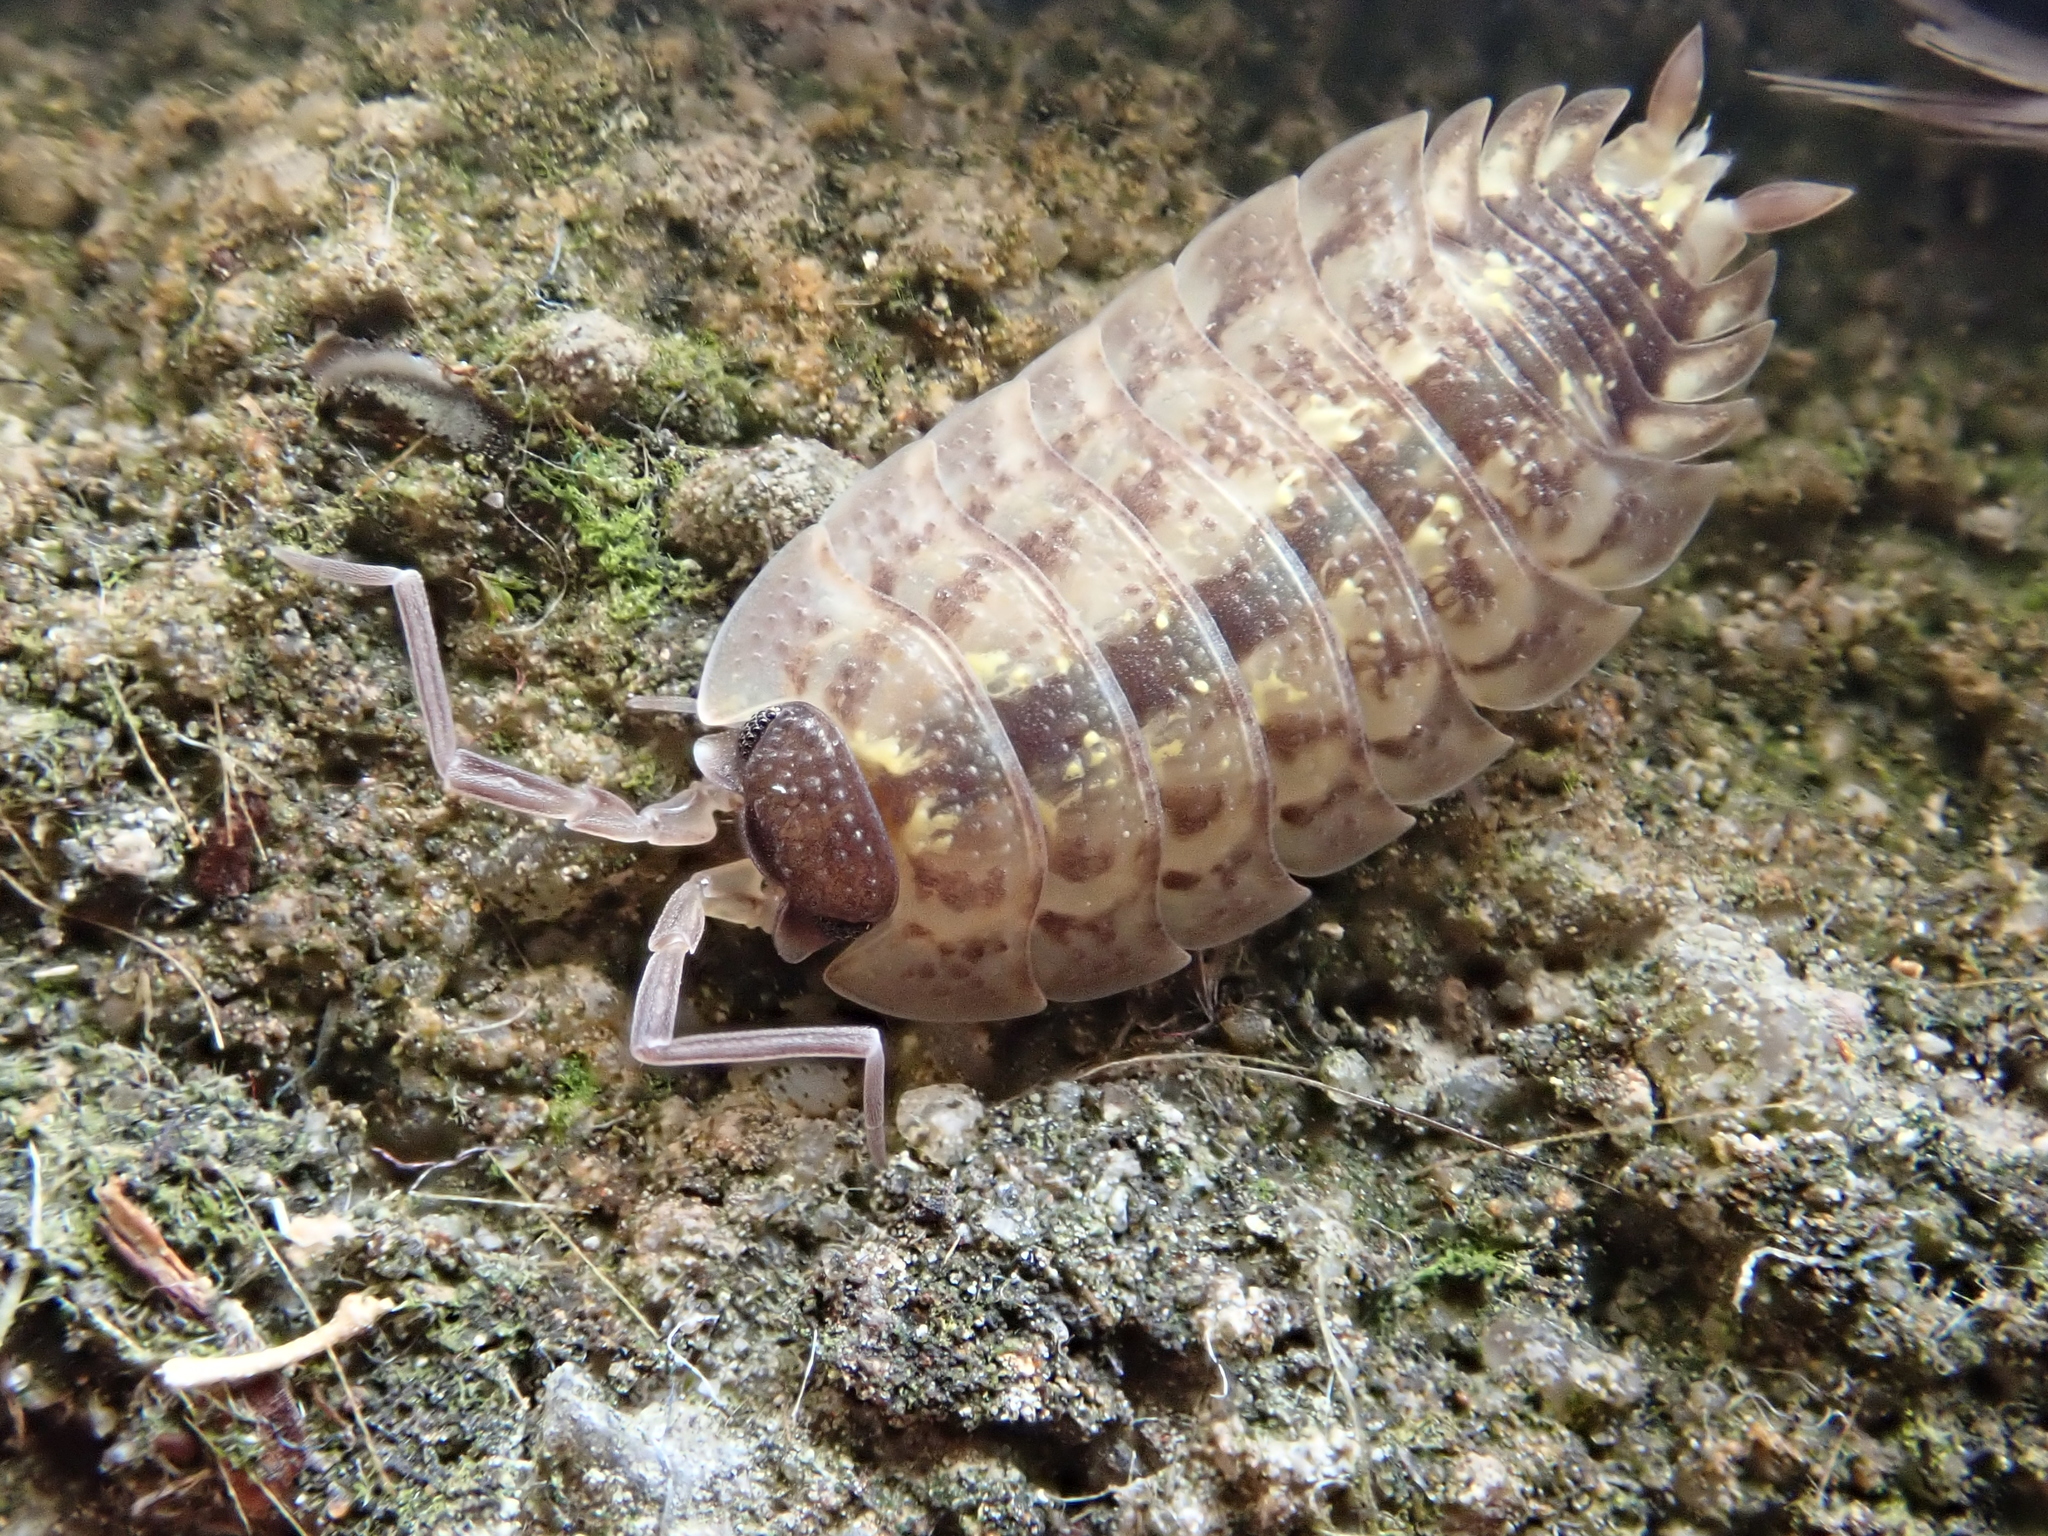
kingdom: Animalia
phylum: Arthropoda
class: Malacostraca
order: Isopoda
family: Porcellionidae
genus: Porcellio
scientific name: Porcellio spinicornis
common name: Painted woodlouse
